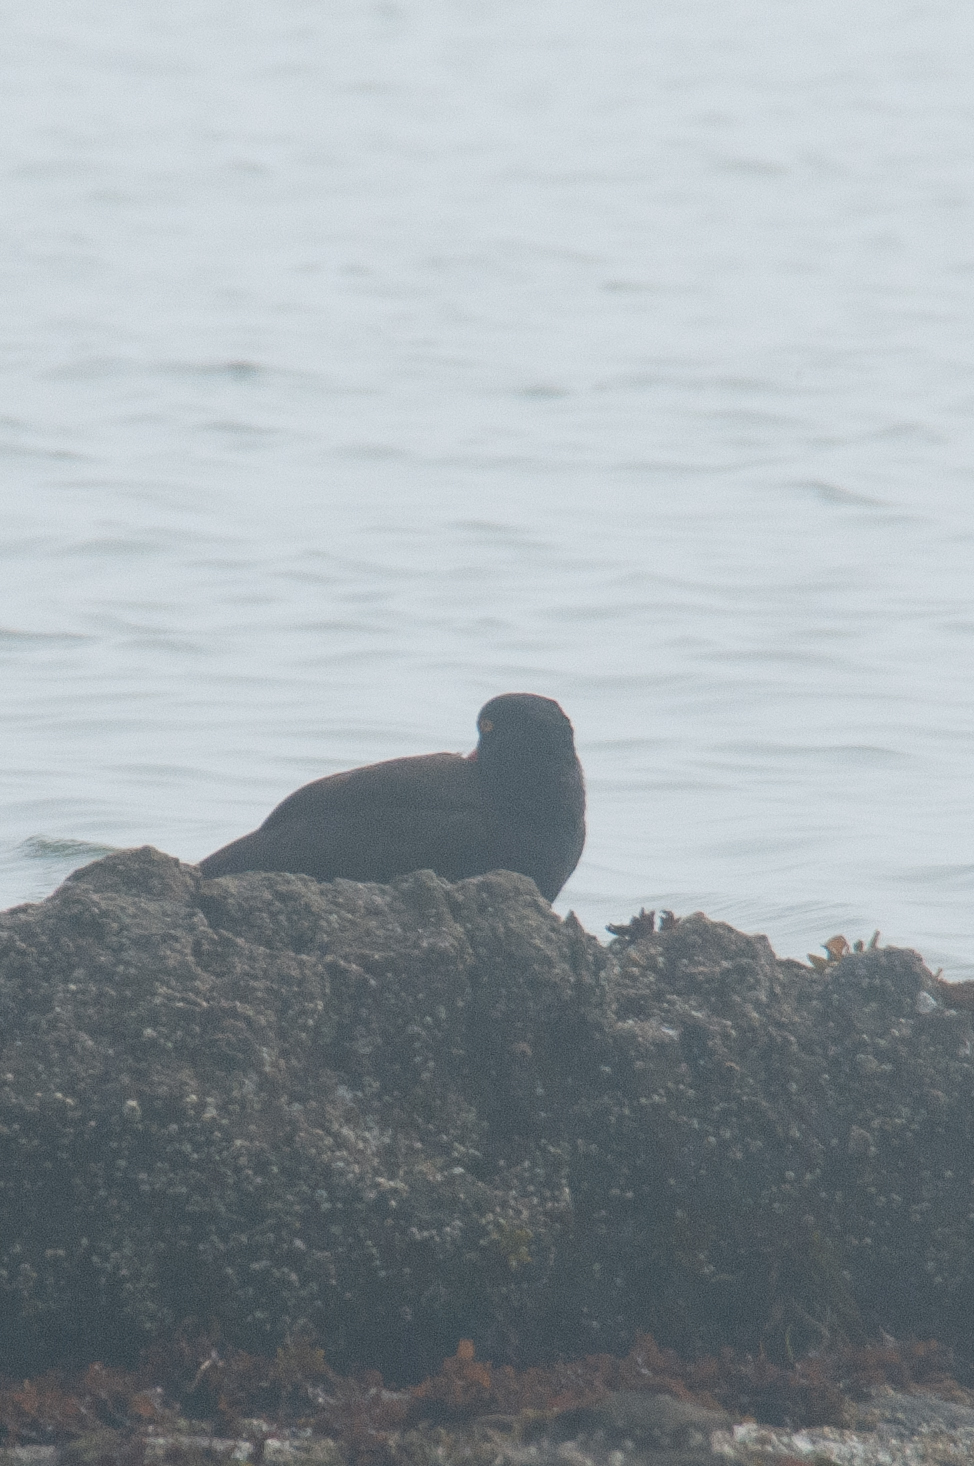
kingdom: Animalia
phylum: Chordata
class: Aves
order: Charadriiformes
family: Haematopodidae
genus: Haematopus
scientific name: Haematopus bachmani
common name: Black oystercatcher
